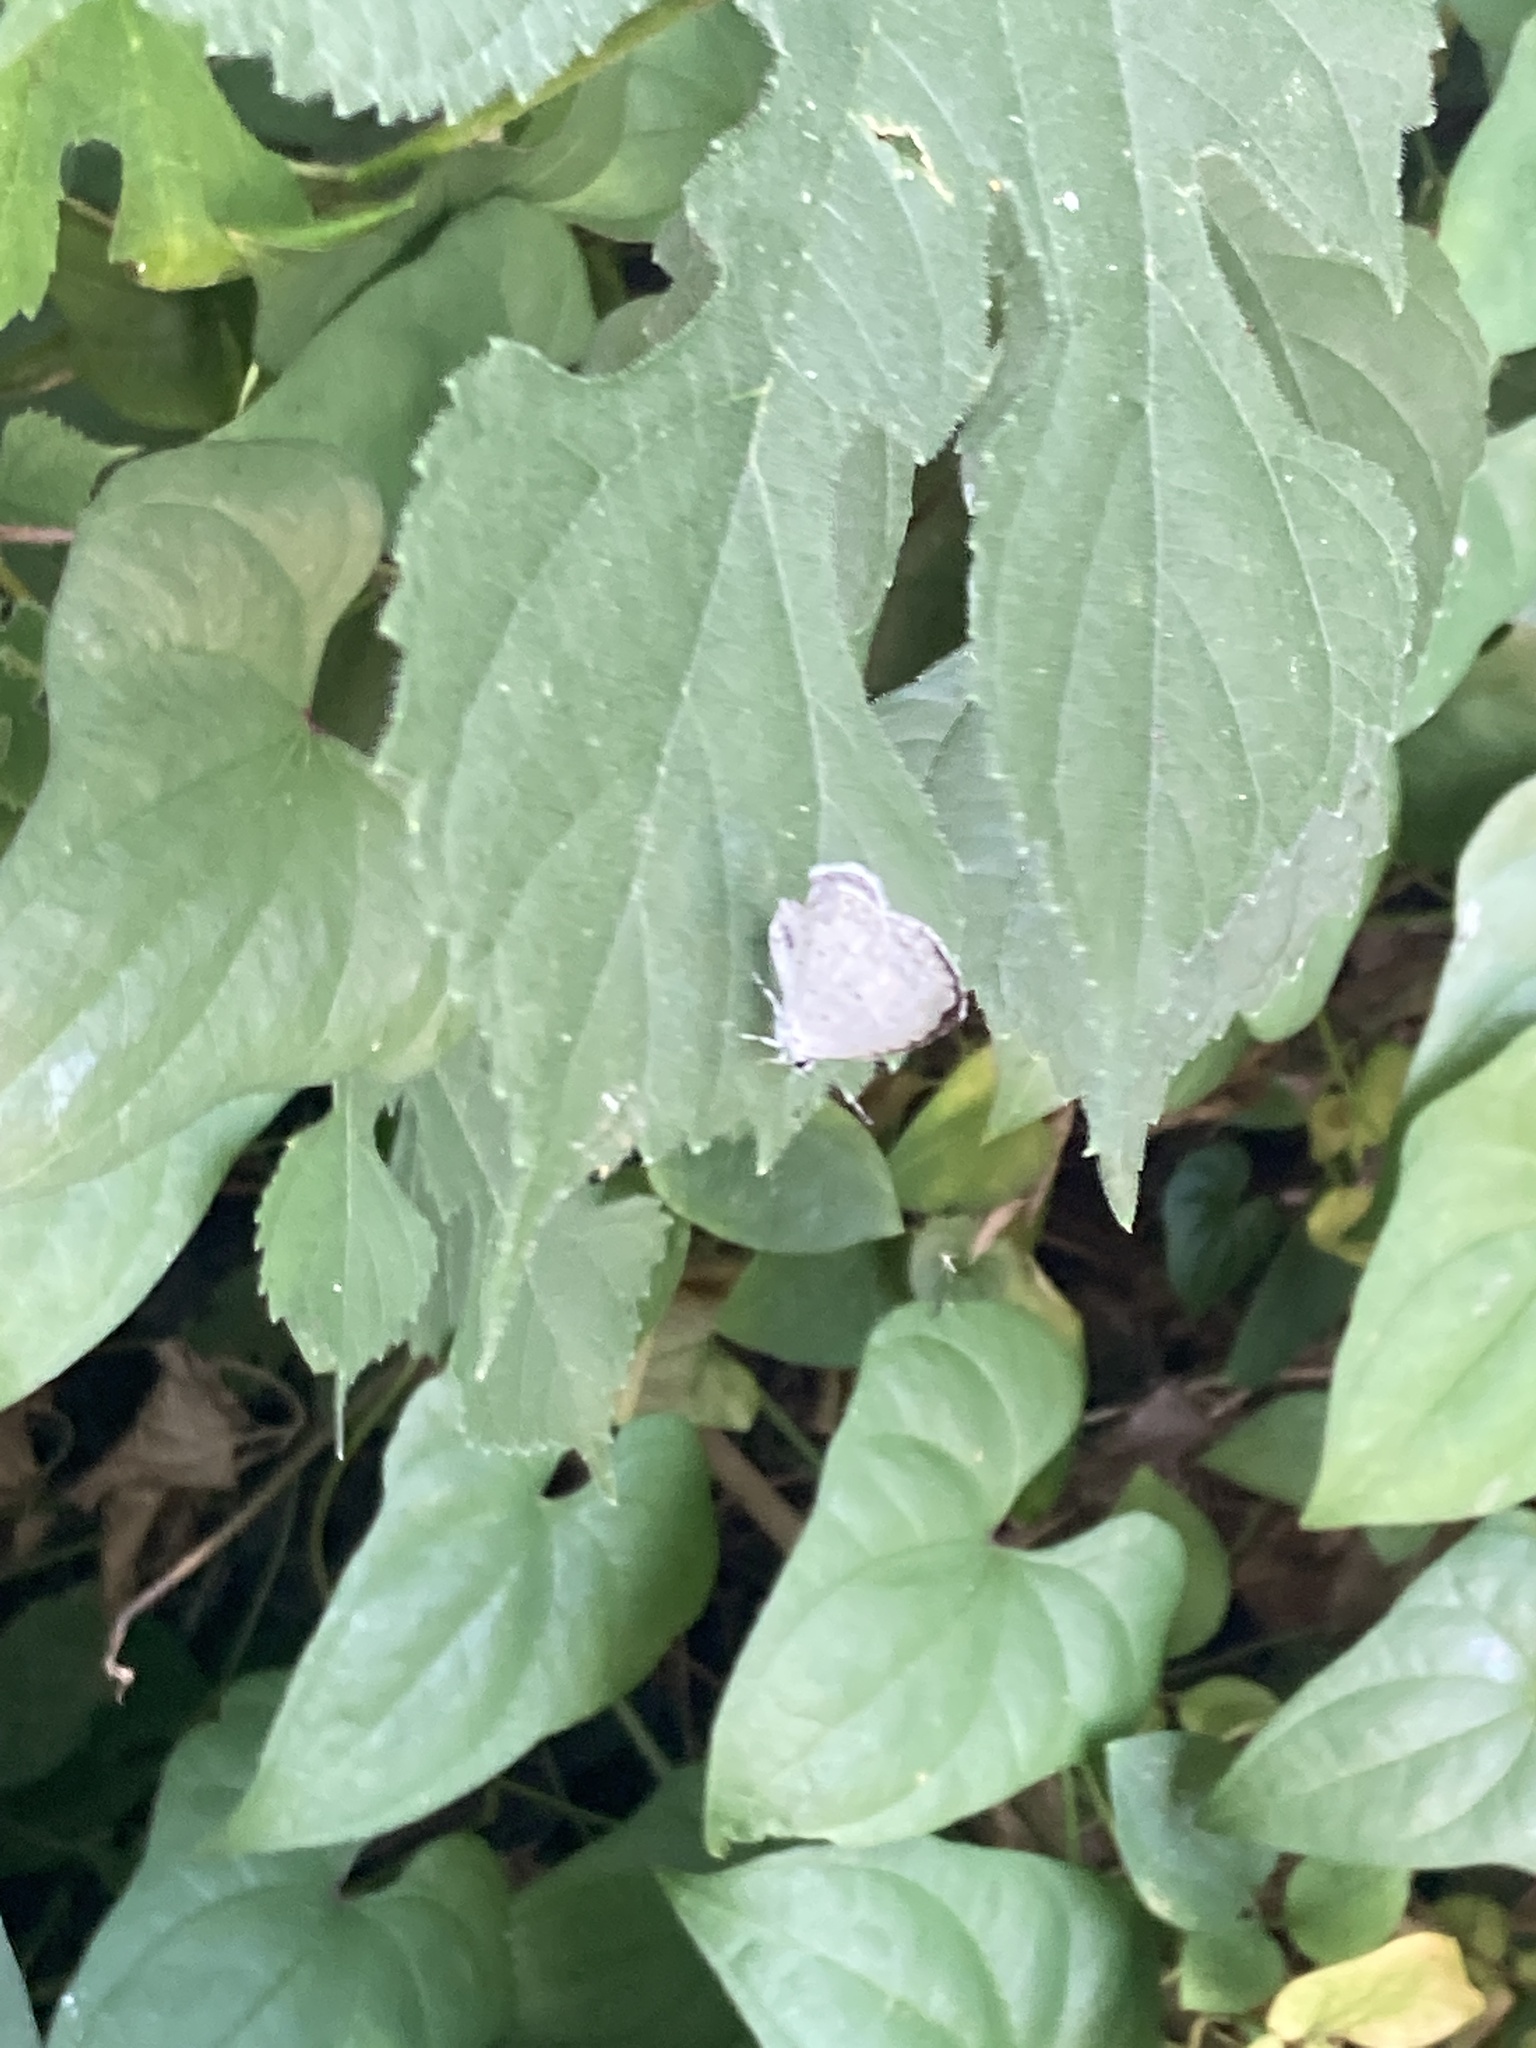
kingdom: Animalia
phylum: Arthropoda
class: Insecta
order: Lepidoptera
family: Lycaenidae
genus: Cyaniris
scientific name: Cyaniris neglecta
